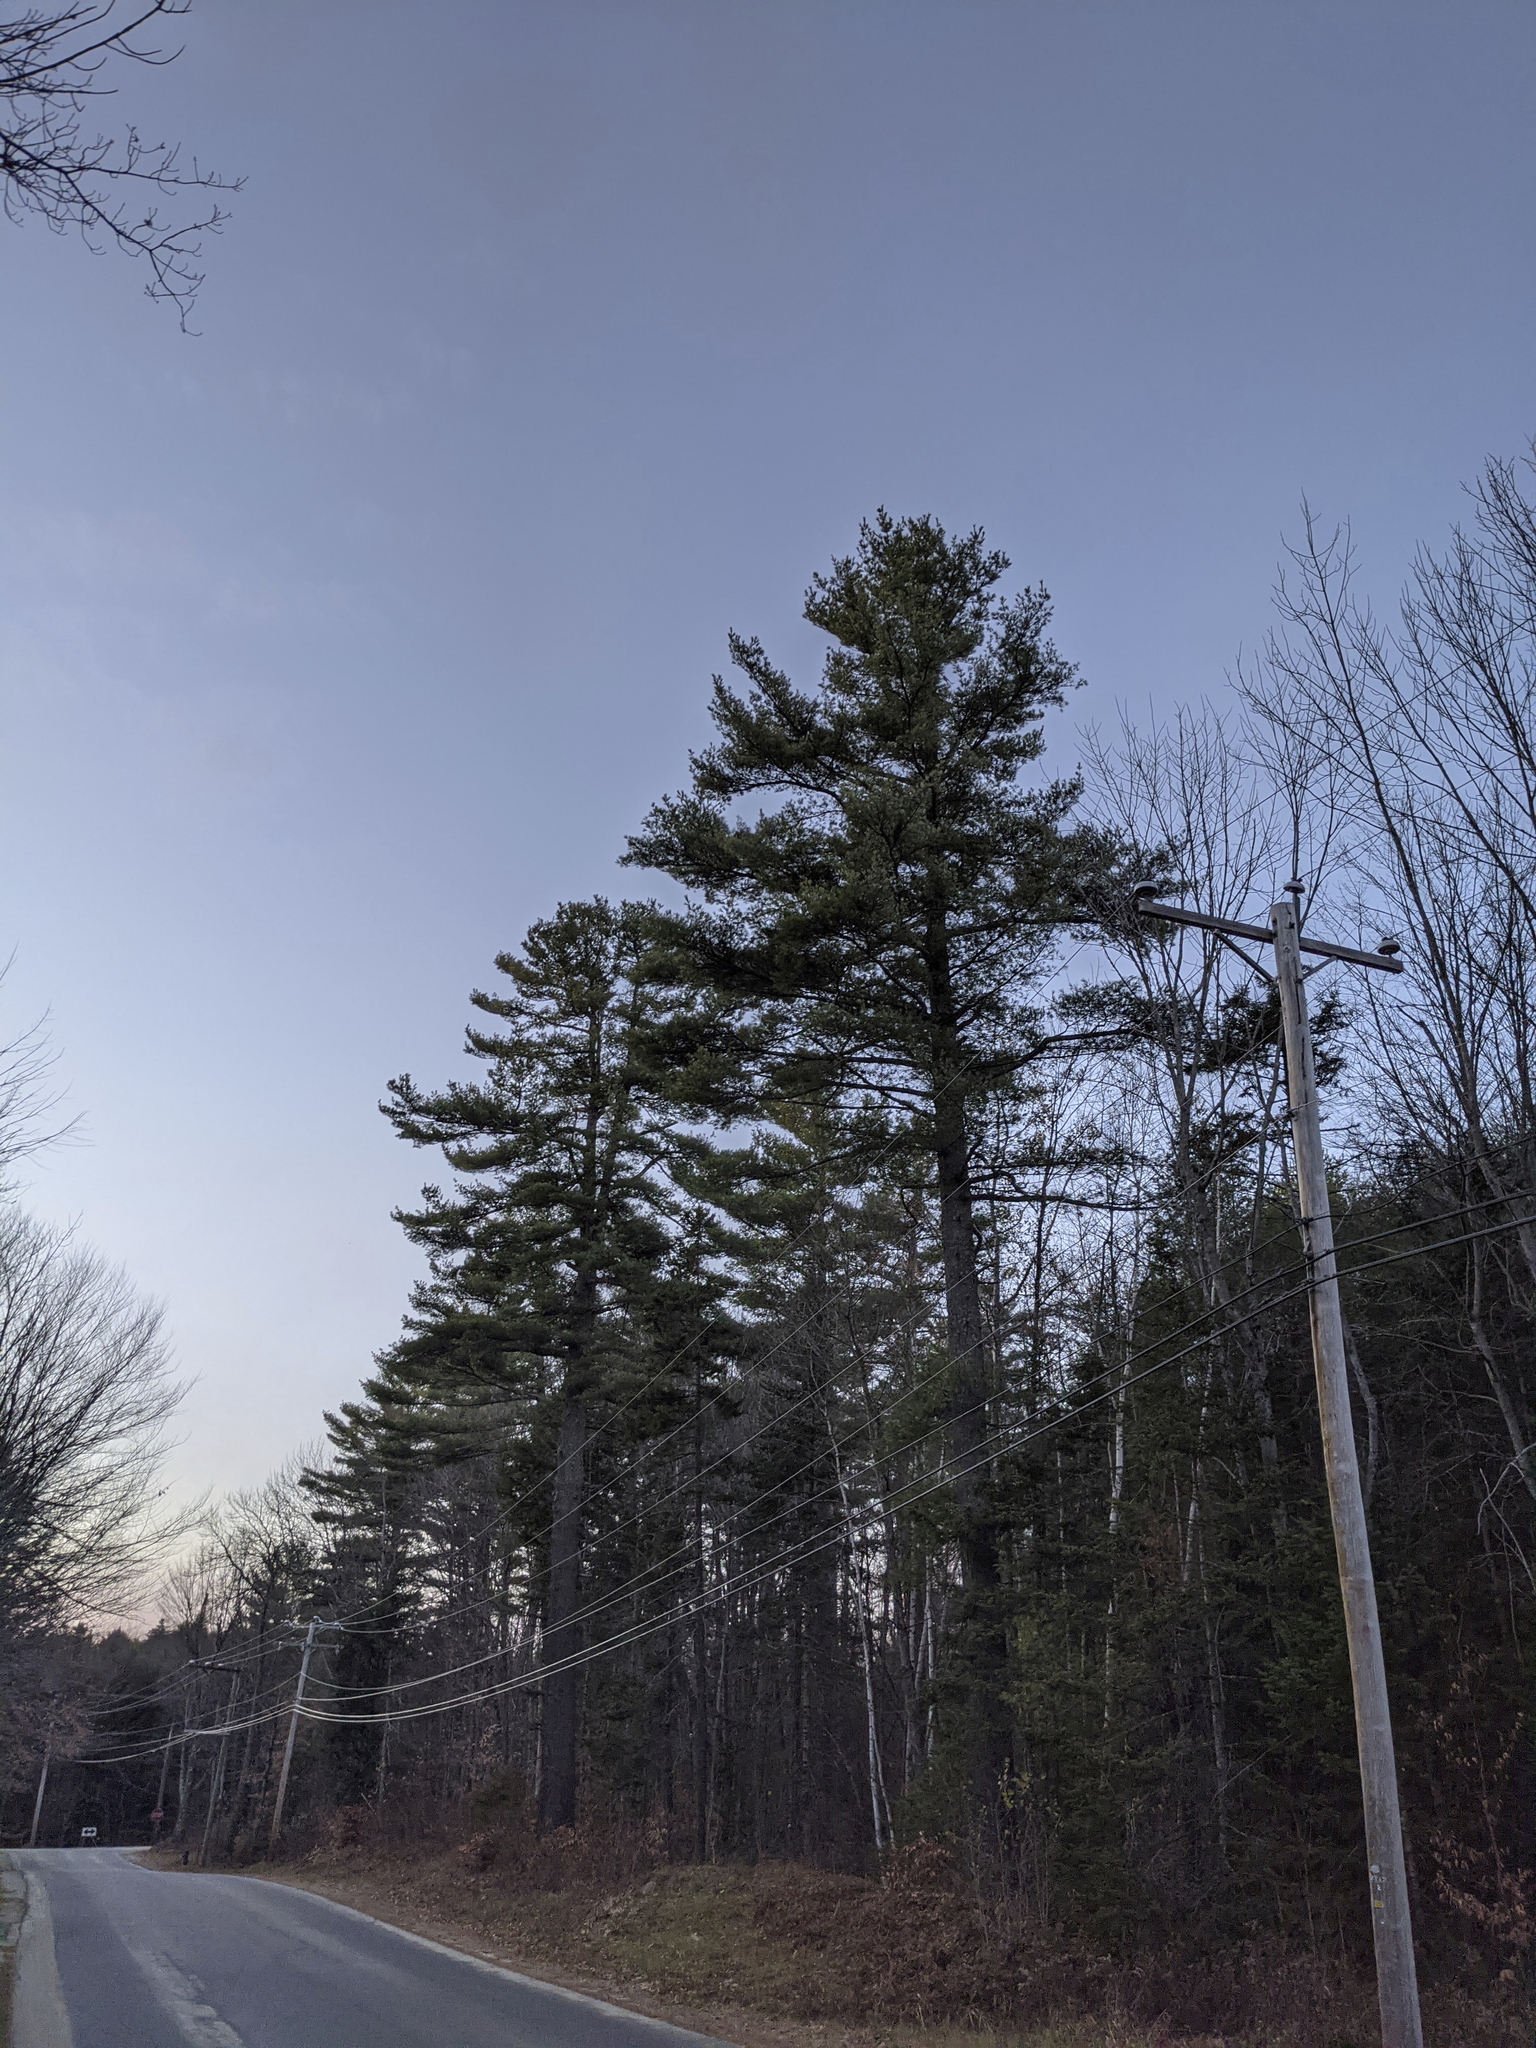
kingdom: Plantae
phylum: Tracheophyta
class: Pinopsida
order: Pinales
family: Pinaceae
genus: Pinus
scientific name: Pinus strobus
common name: Weymouth pine
